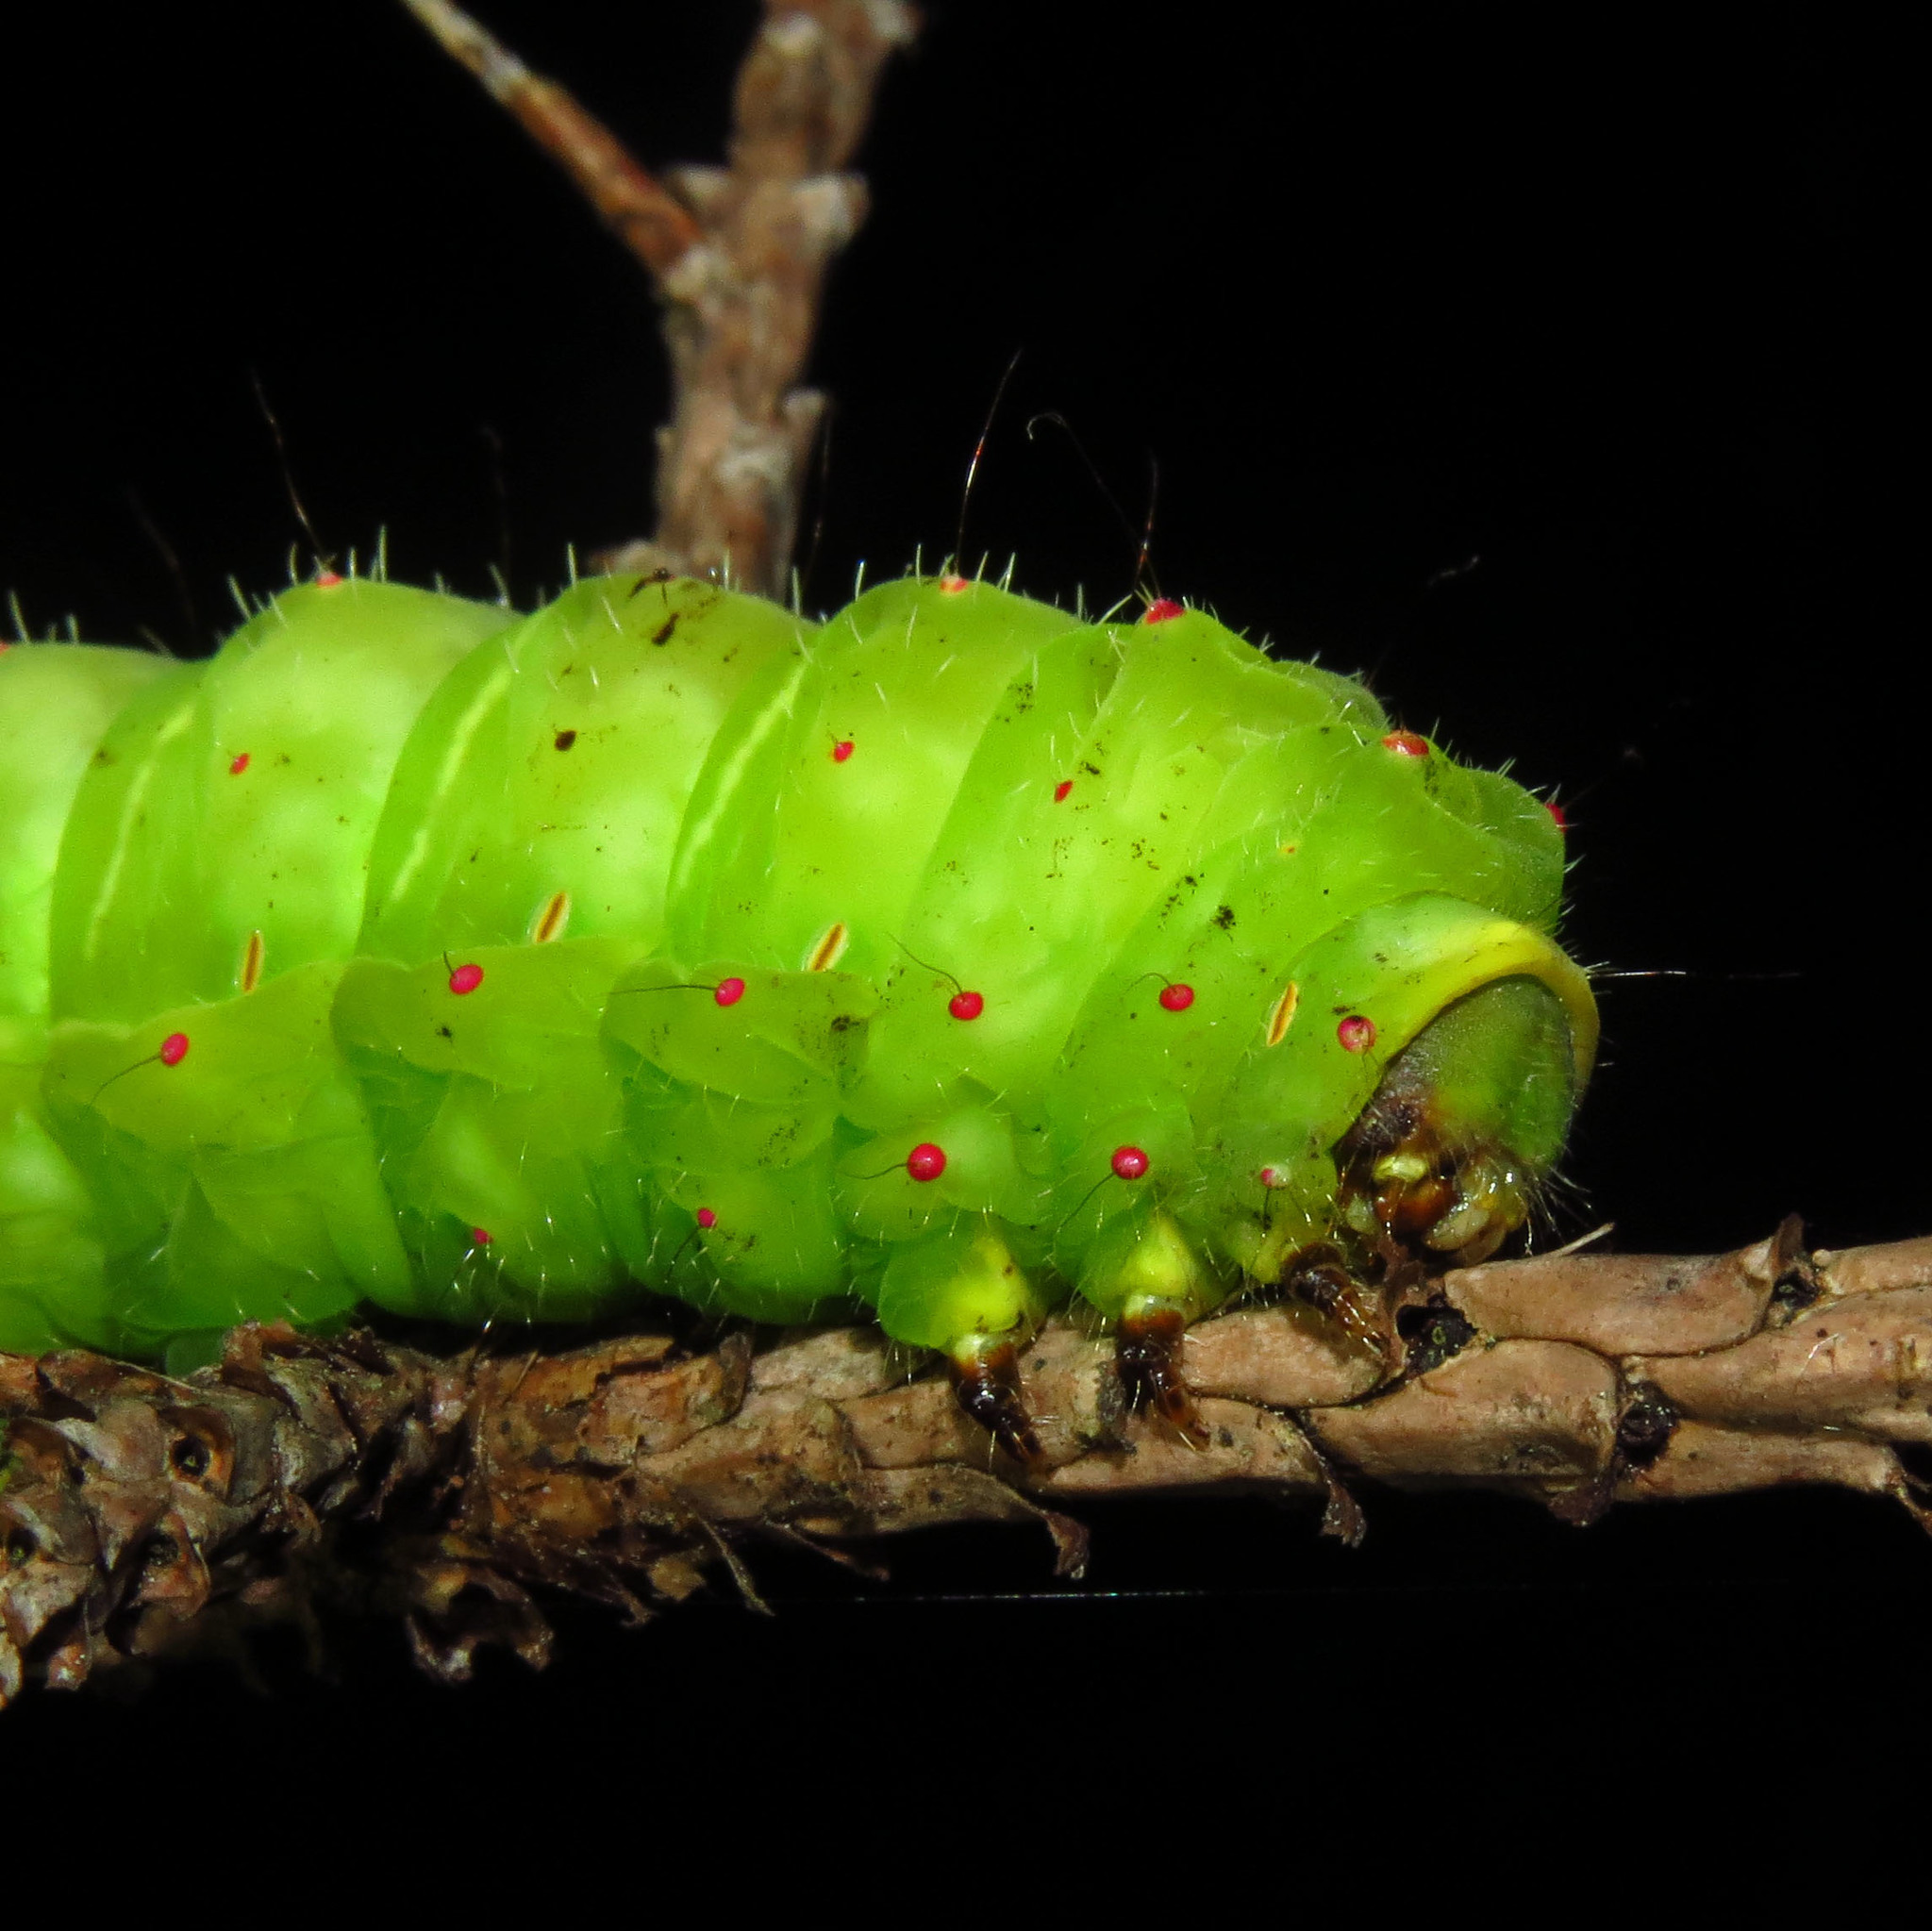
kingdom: Animalia
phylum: Arthropoda
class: Insecta
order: Lepidoptera
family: Saturniidae
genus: Actias
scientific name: Actias luna
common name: Luna moth
